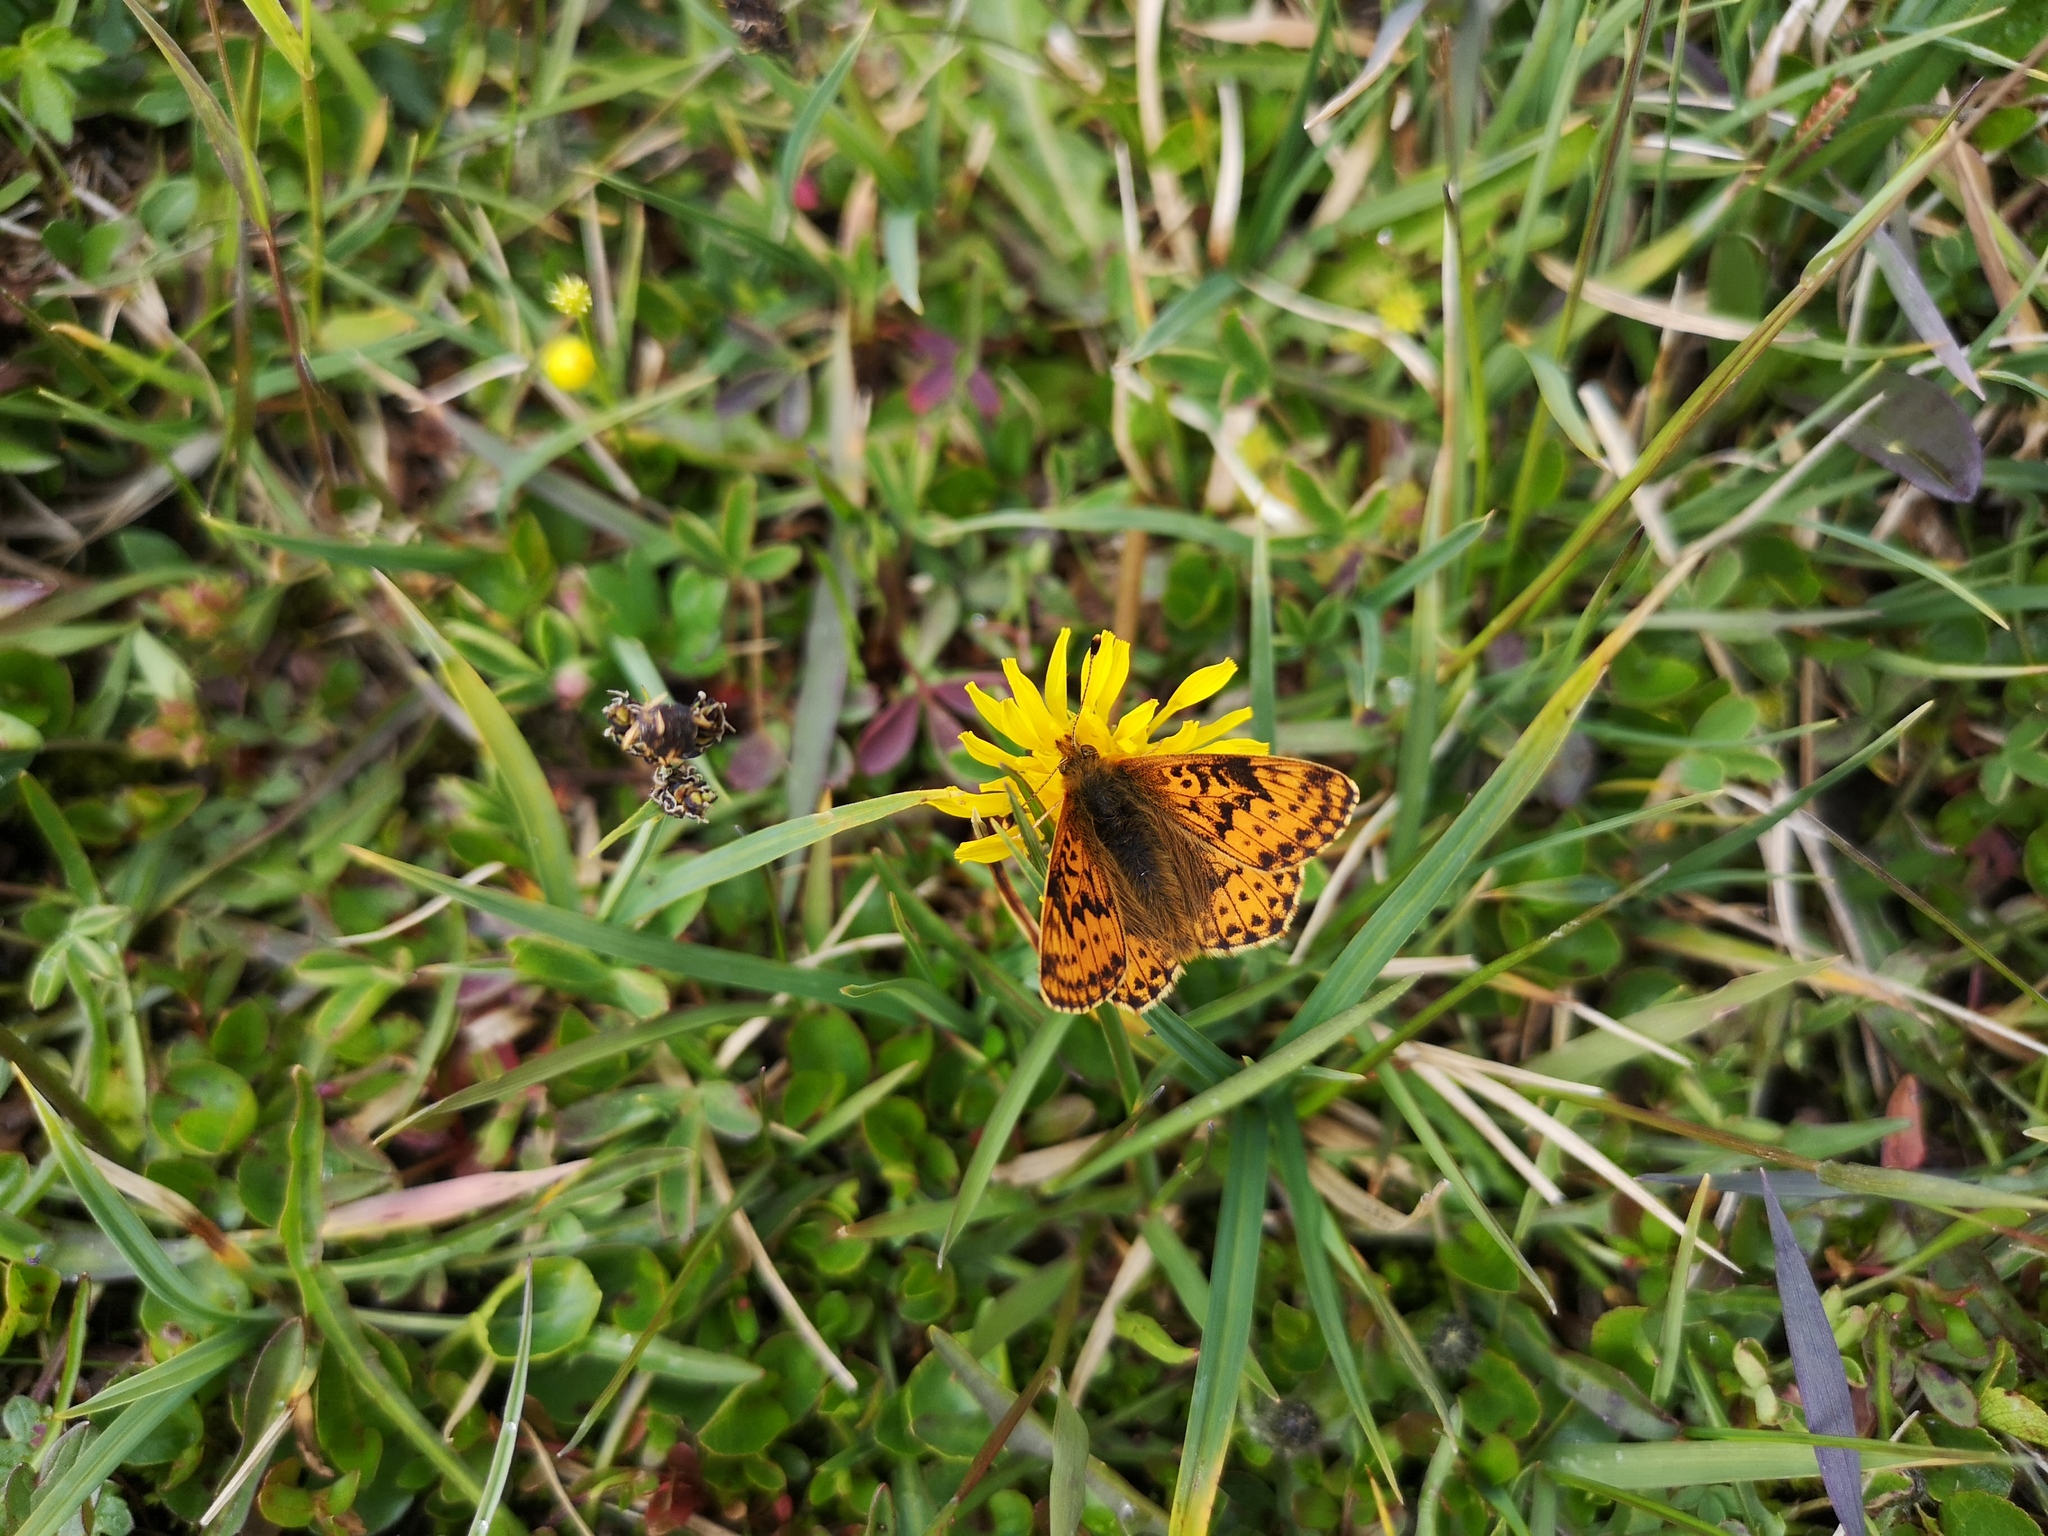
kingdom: Animalia
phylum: Arthropoda
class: Insecta
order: Lepidoptera
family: Nymphalidae
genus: Boloria
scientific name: Boloria aquilonaris
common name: Cranberry fritillary
